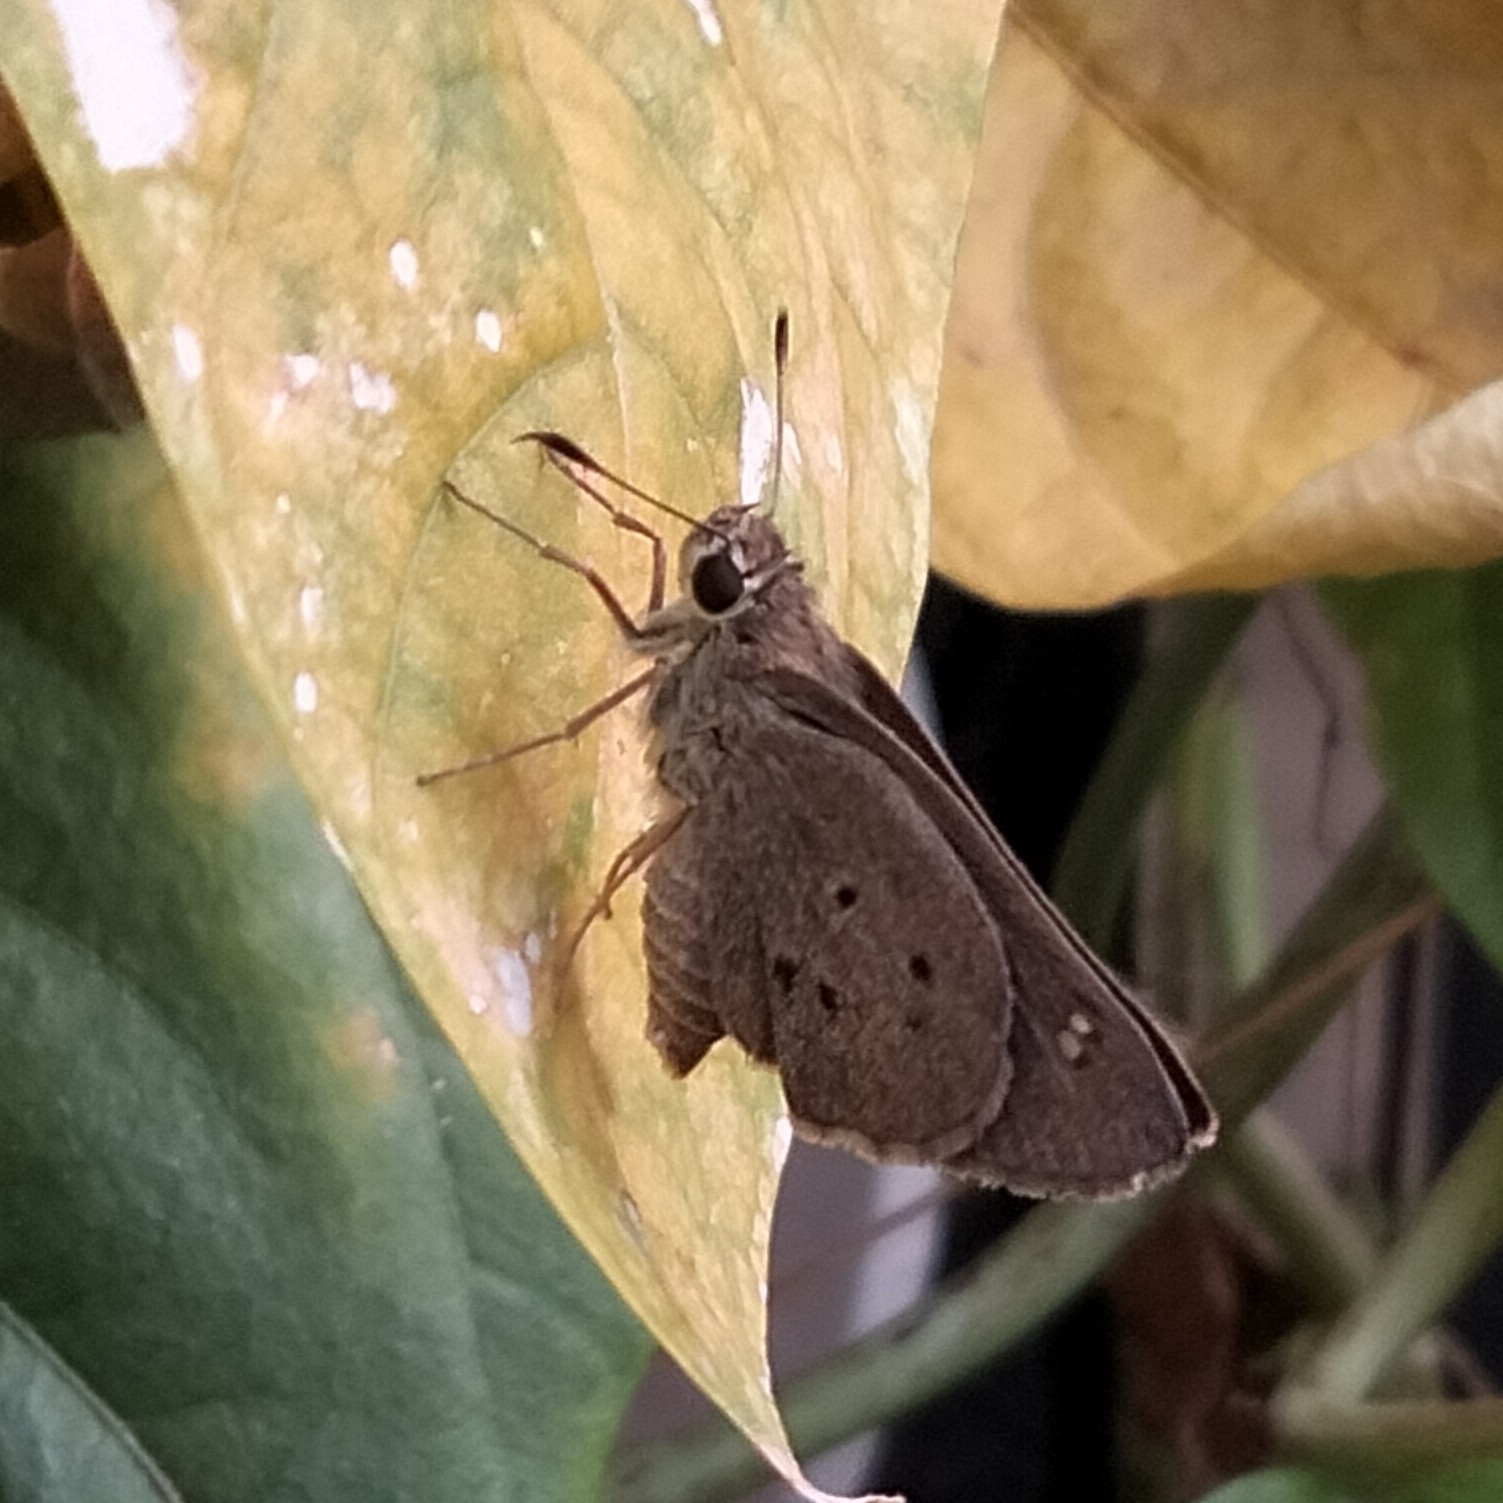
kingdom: Animalia
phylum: Arthropoda
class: Insecta
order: Lepidoptera
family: Hesperiidae
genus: Suastus
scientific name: Suastus gremius
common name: Indian palm bob
